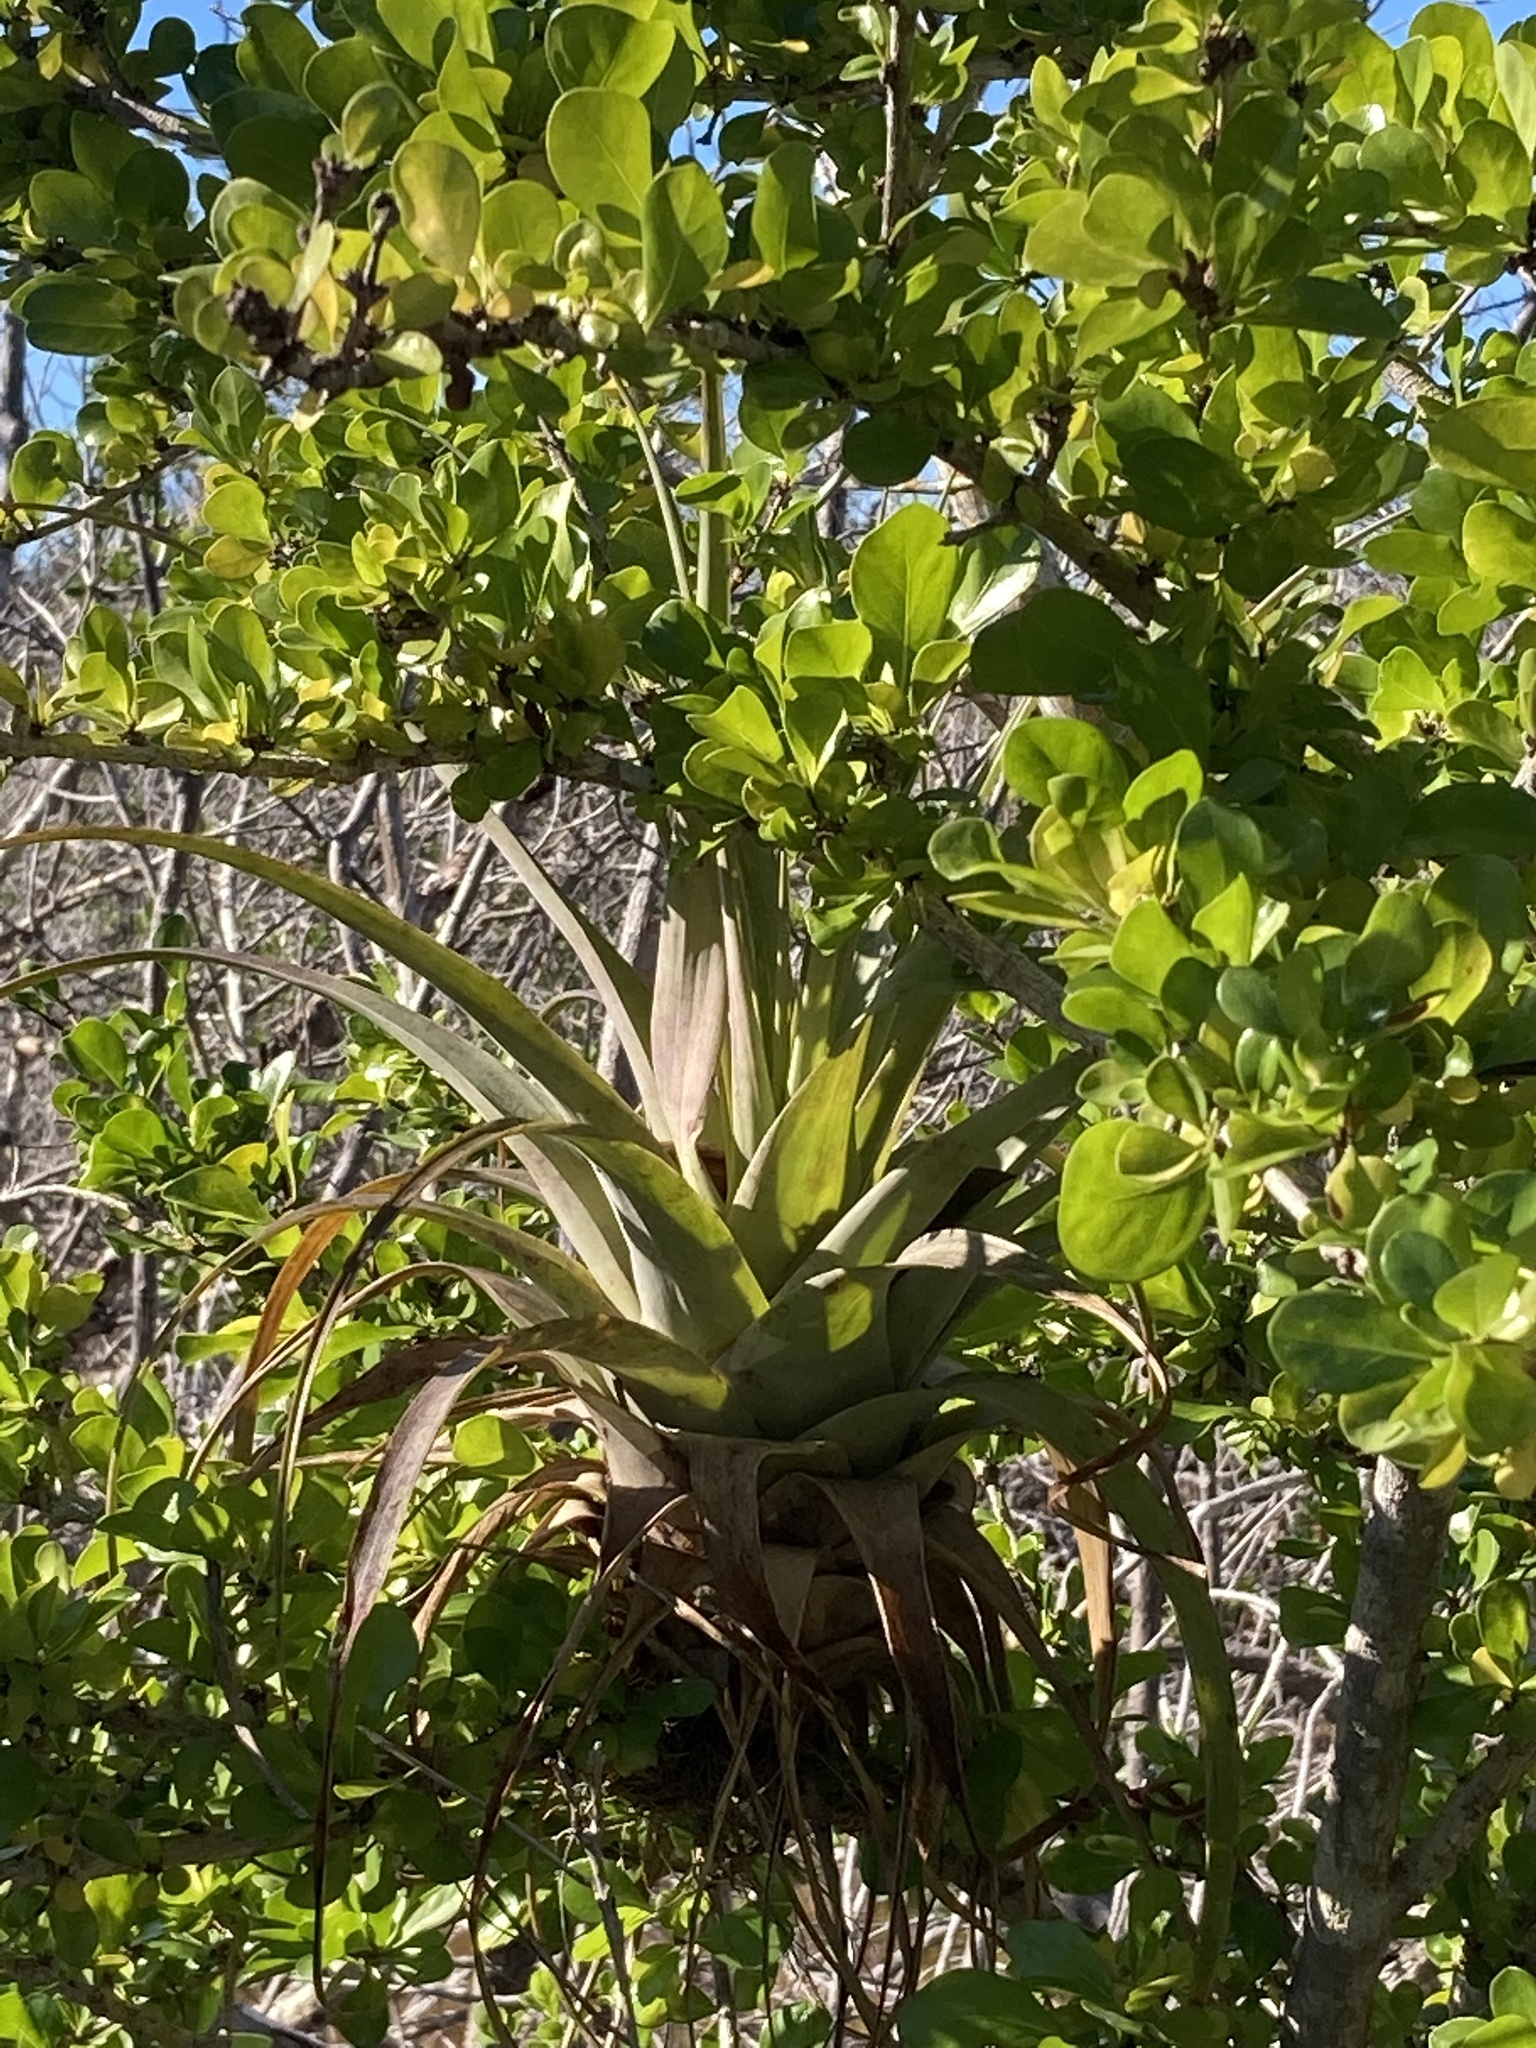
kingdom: Plantae
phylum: Tracheophyta
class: Liliopsida
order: Poales
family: Bromeliaceae
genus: Tillandsia
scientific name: Tillandsia utriculata
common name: Wild pine
